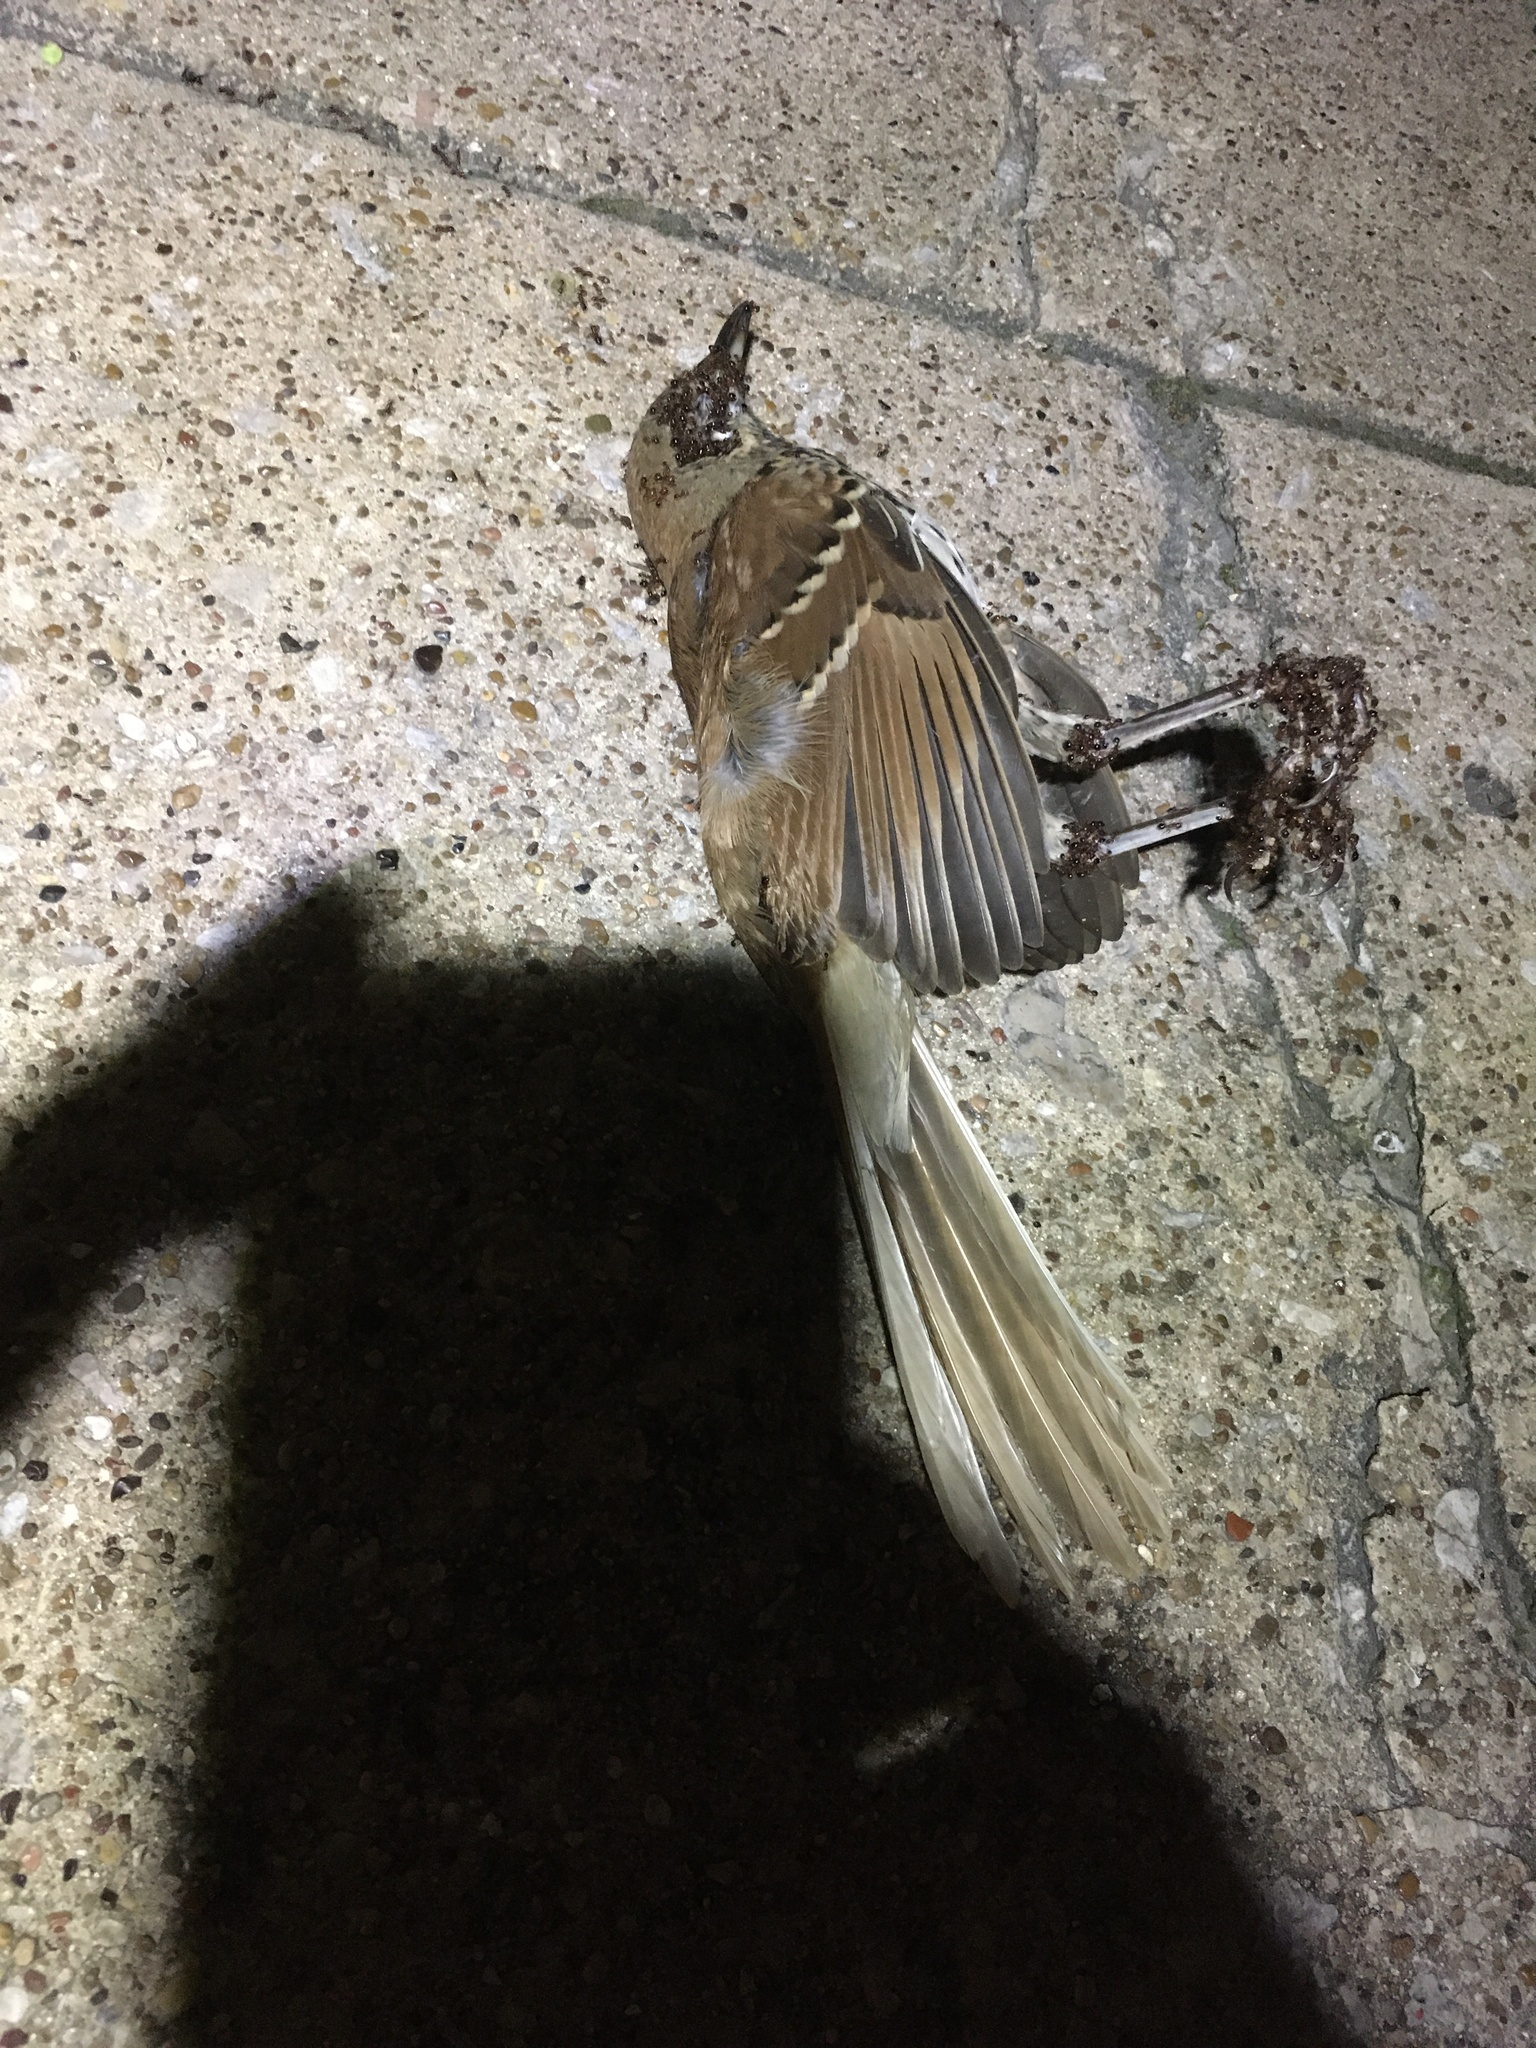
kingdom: Animalia
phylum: Chordata
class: Aves
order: Passeriformes
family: Mimidae
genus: Toxostoma
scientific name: Toxostoma rufum
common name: Brown thrasher
